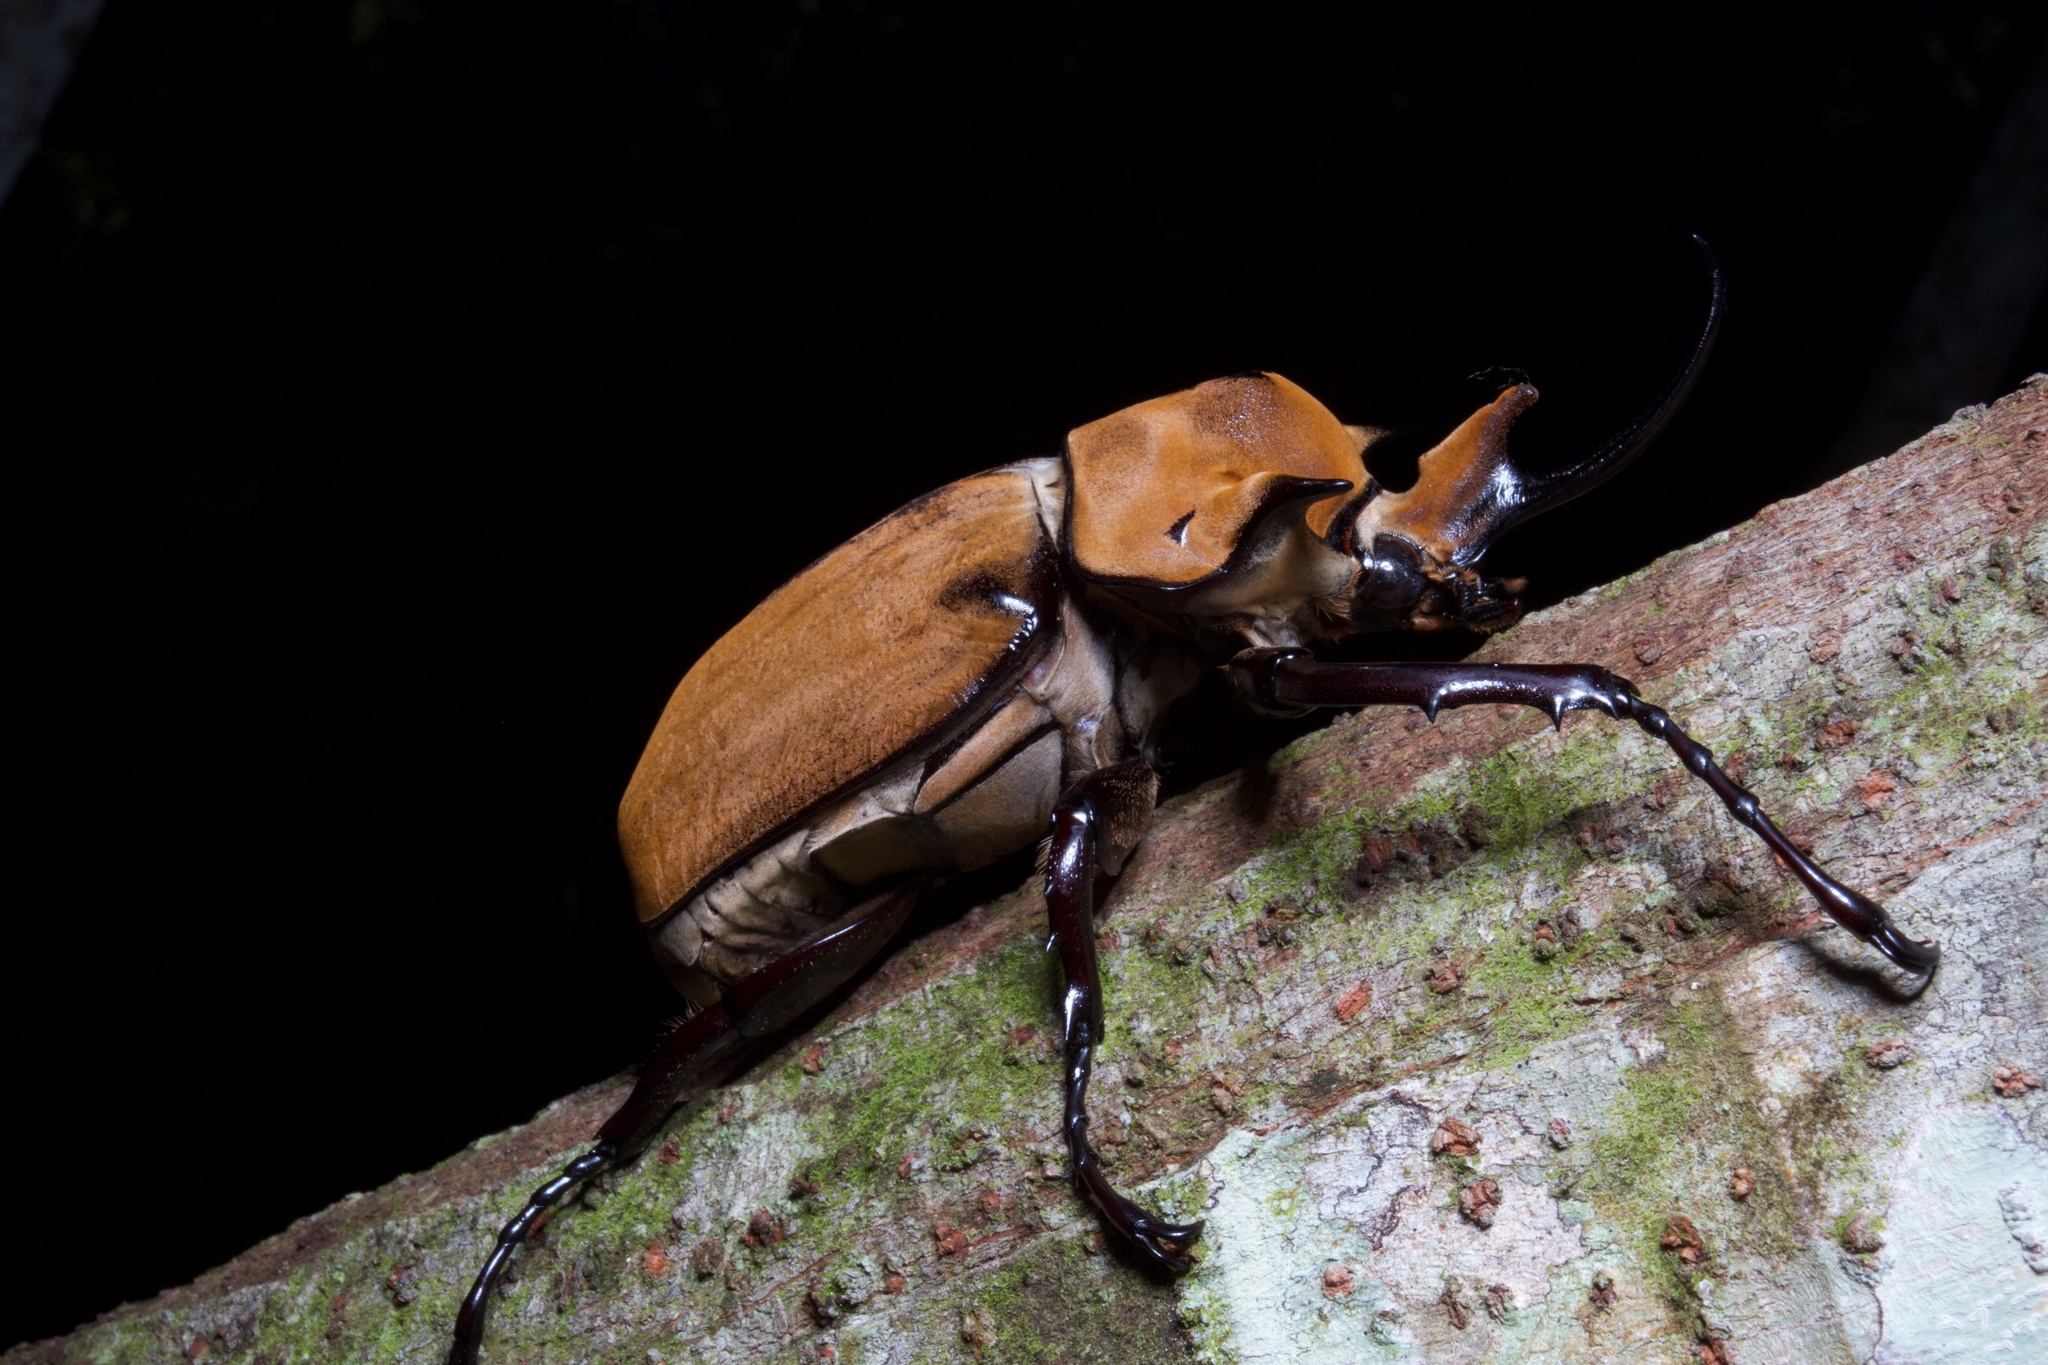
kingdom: Animalia
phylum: Arthropoda
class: Insecta
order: Coleoptera
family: Scarabaeidae
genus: Megasoma
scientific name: Megasoma elephas
